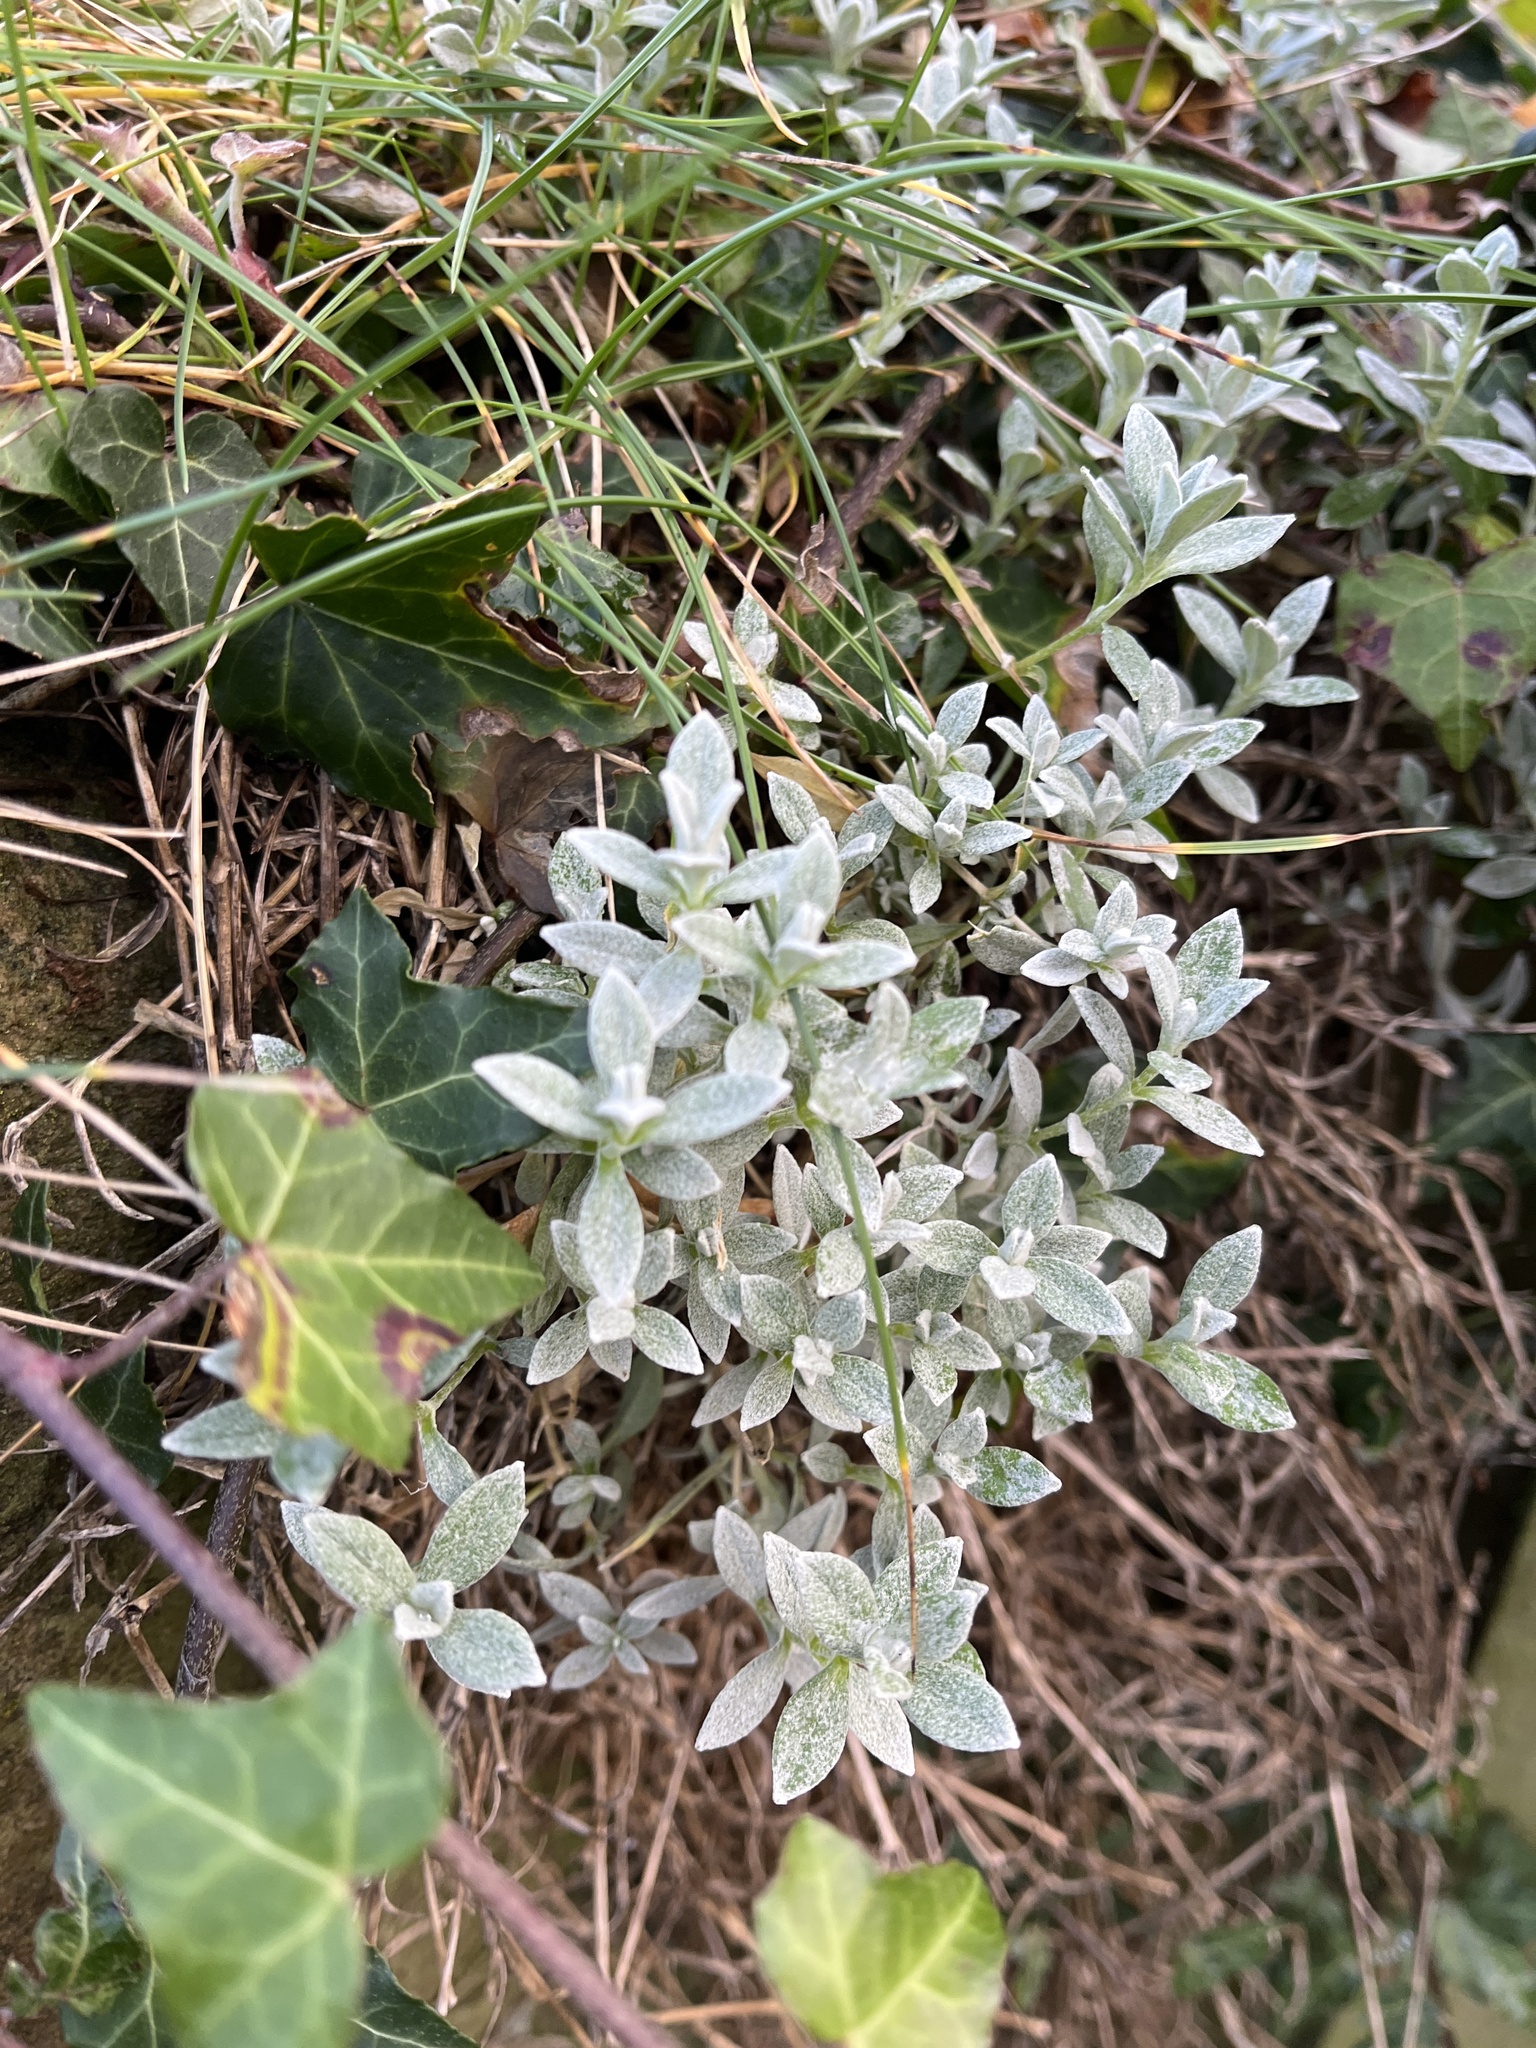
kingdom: Plantae
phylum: Tracheophyta
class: Magnoliopsida
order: Caryophyllales
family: Caryophyllaceae
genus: Cerastium
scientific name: Cerastium tomentosum
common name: Snow-in-summer
